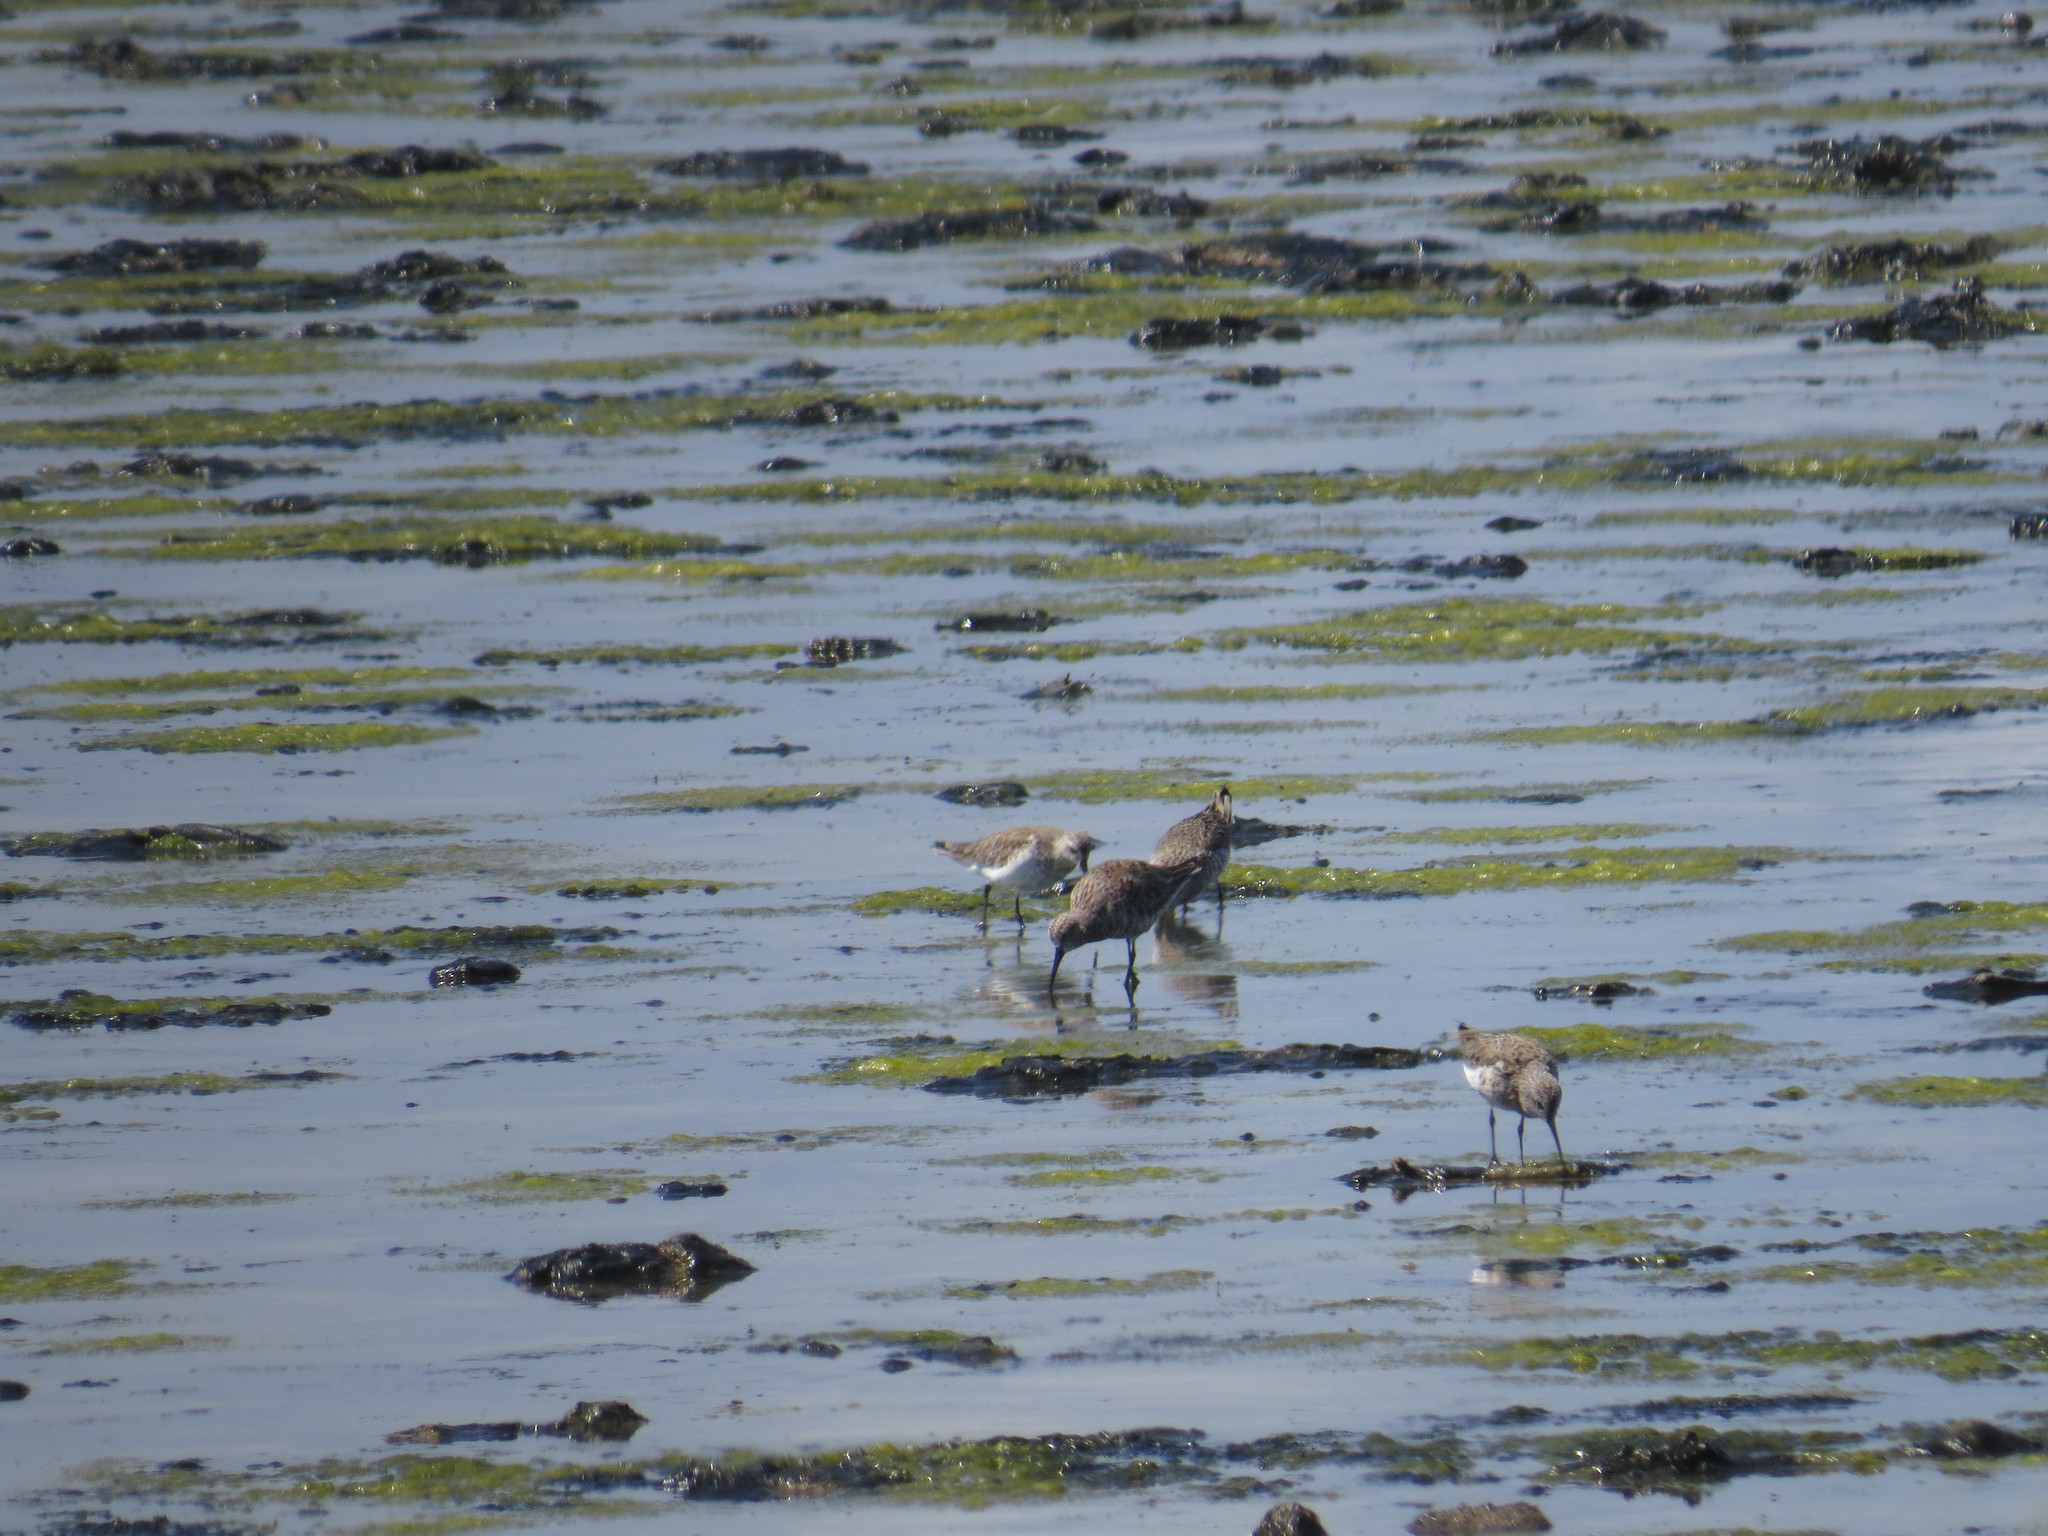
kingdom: Animalia
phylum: Chordata
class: Aves
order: Charadriiformes
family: Scolopacidae
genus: Calidris
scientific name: Calidris ferruginea
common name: Curlew sandpiper
